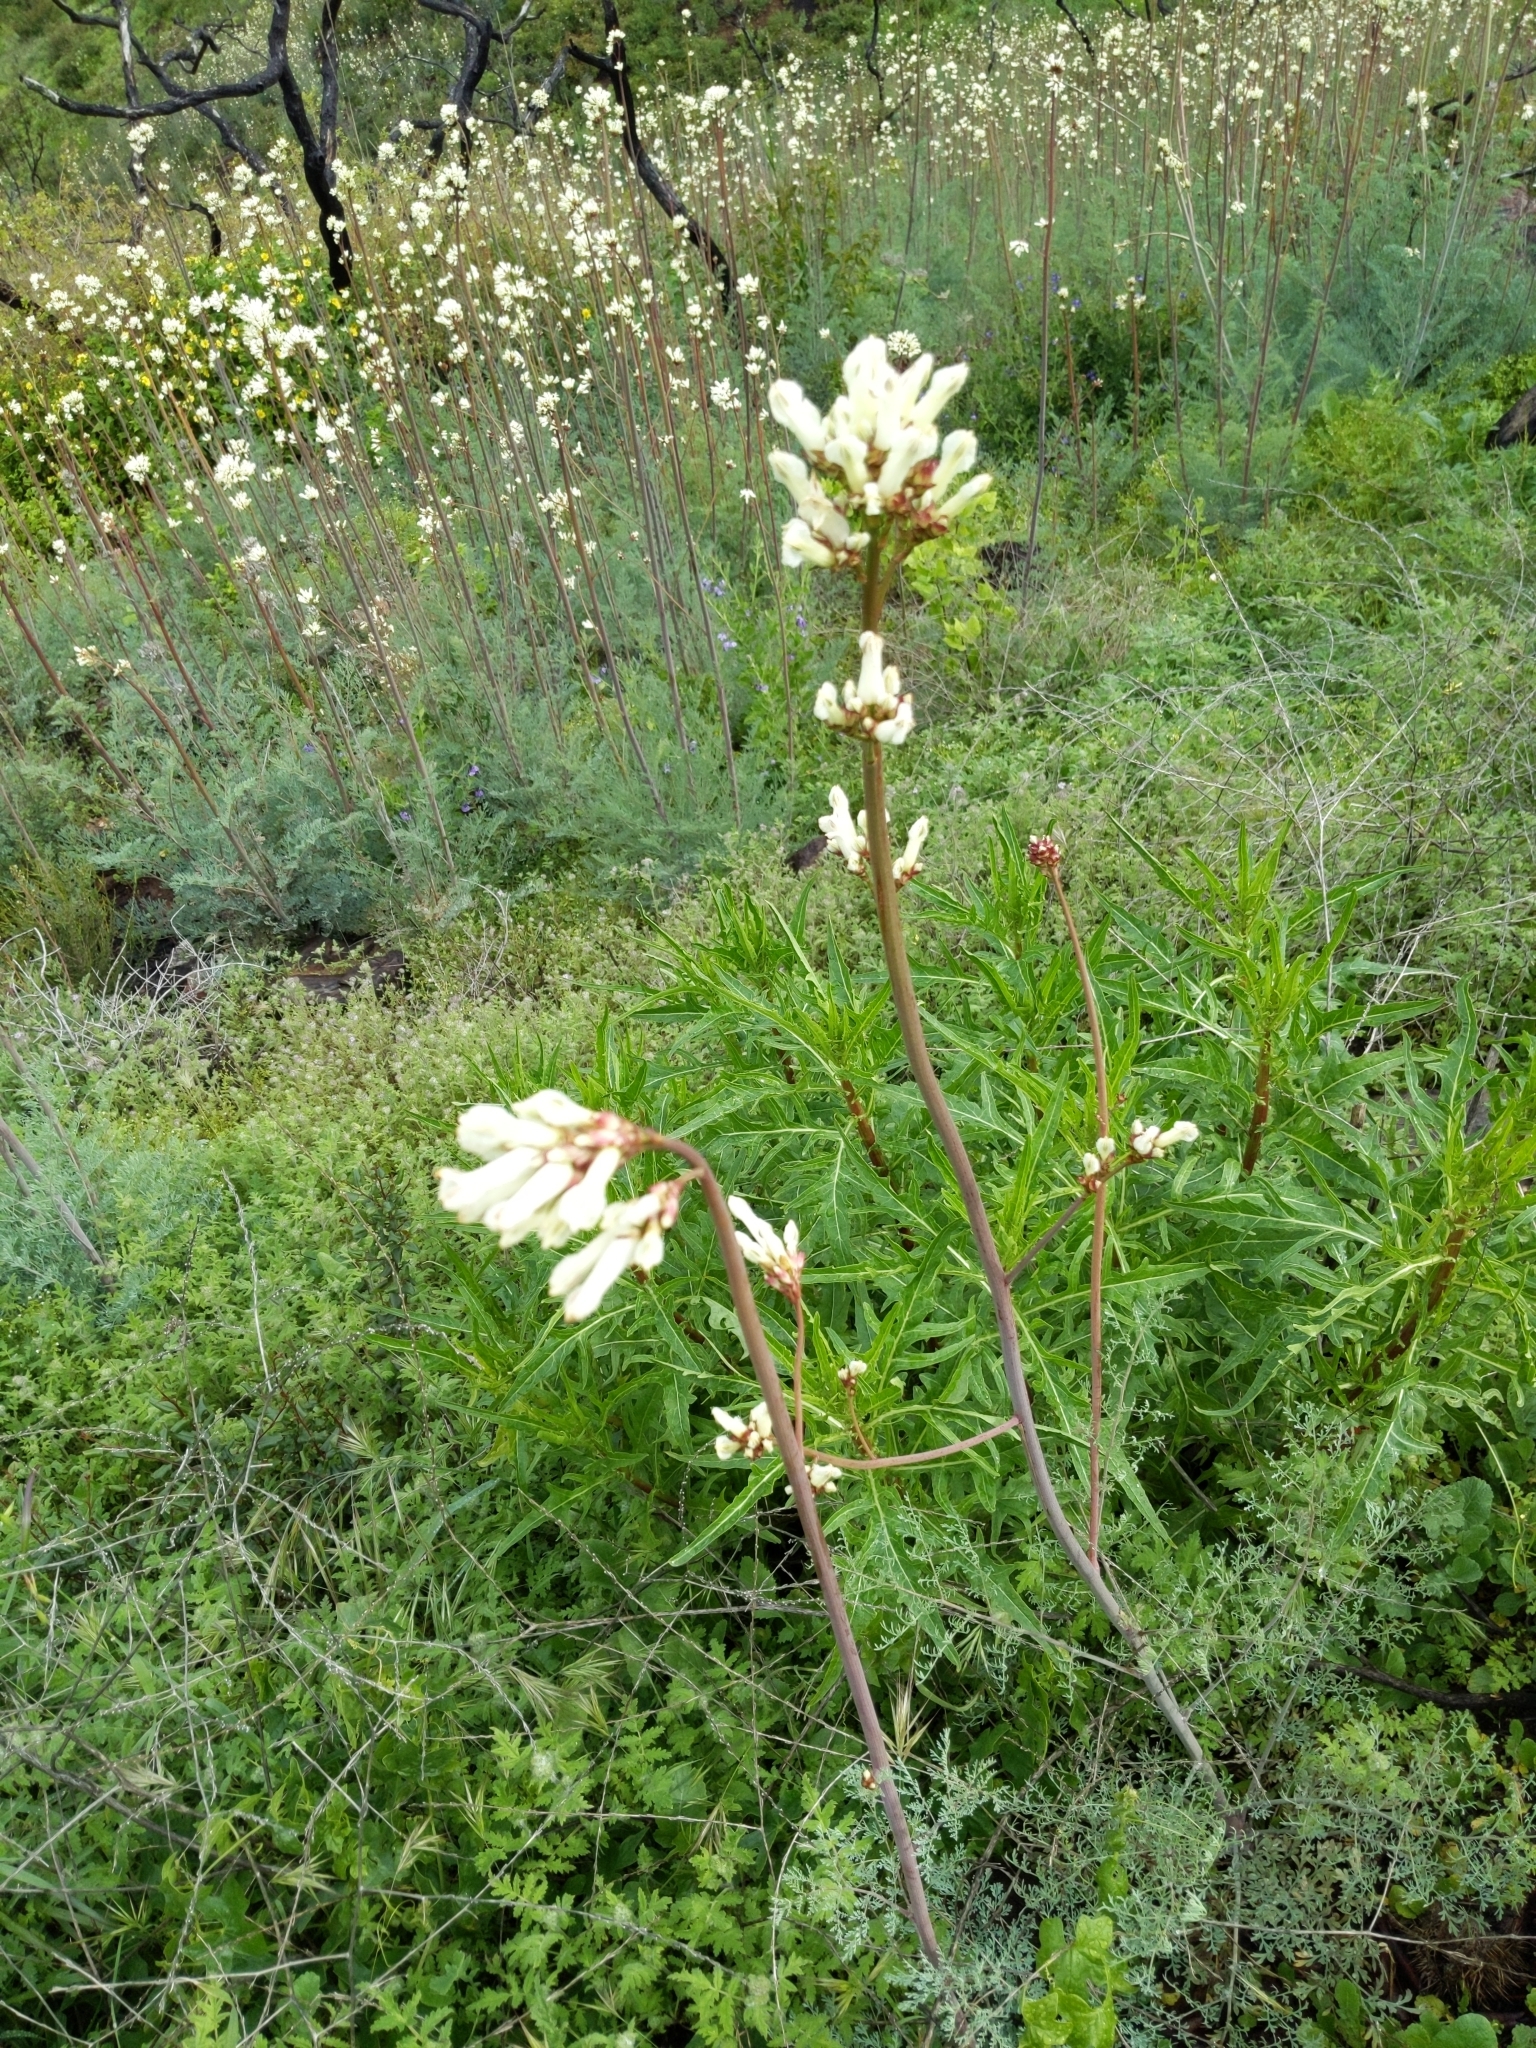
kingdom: Plantae
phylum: Tracheophyta
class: Magnoliopsida
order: Ranunculales
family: Papaveraceae
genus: Ehrendorferia
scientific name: Ehrendorferia ochroleuca
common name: White eardrops
